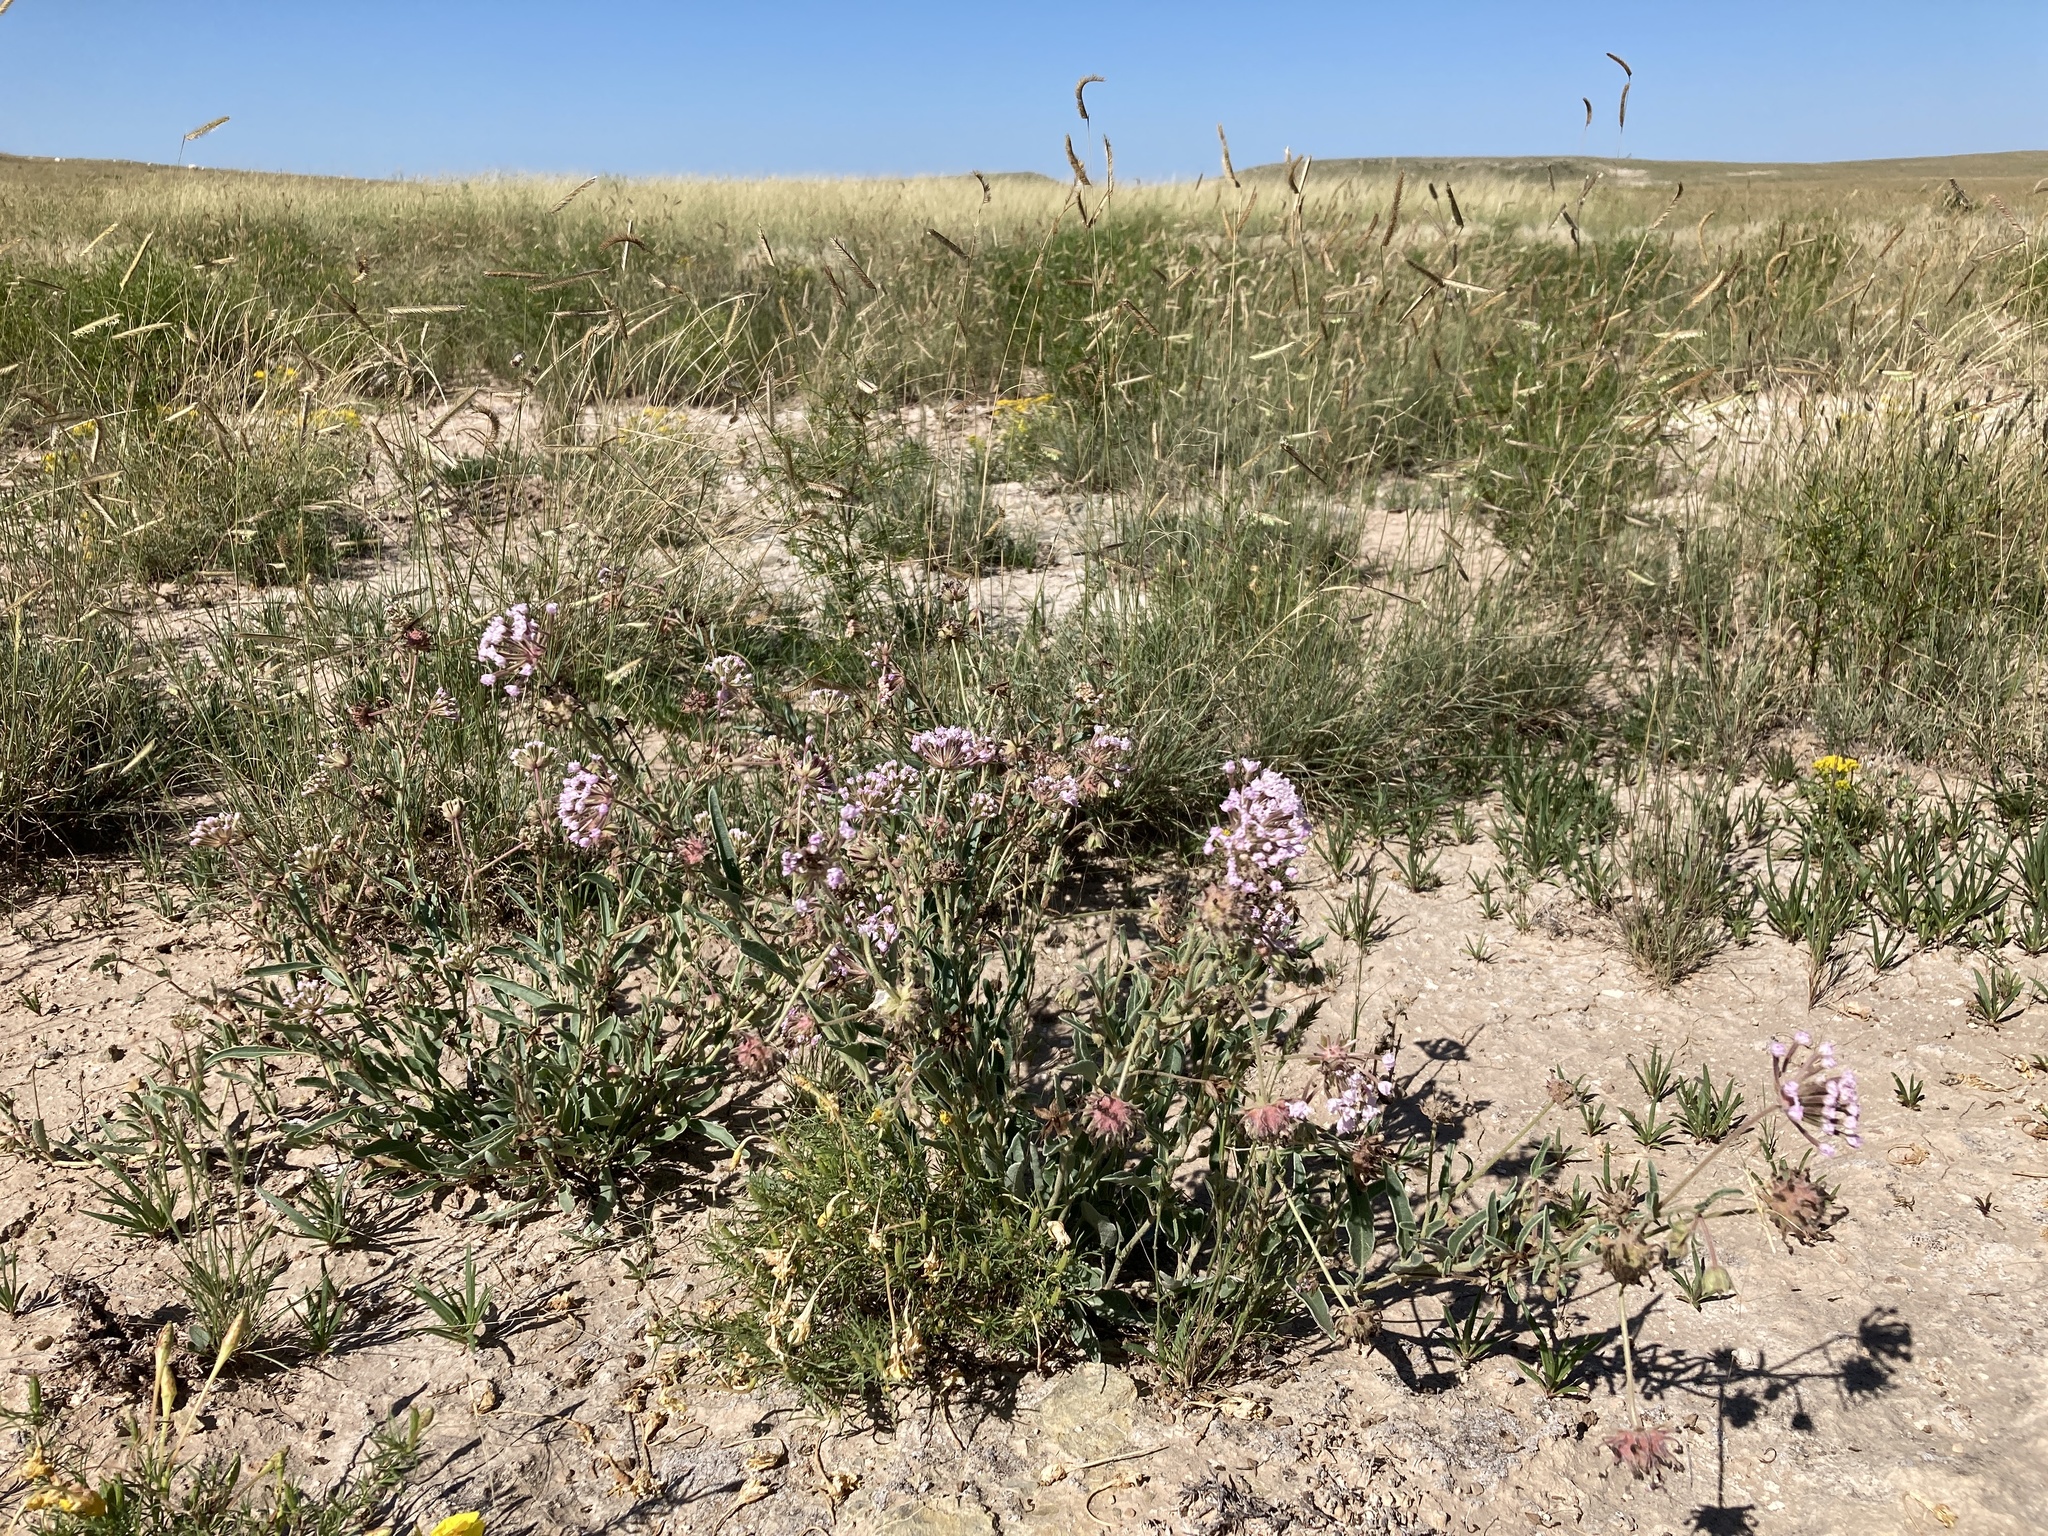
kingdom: Plantae
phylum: Tracheophyta
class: Magnoliopsida
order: Caryophyllales
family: Nyctaginaceae
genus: Abronia
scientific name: Abronia carletonii
